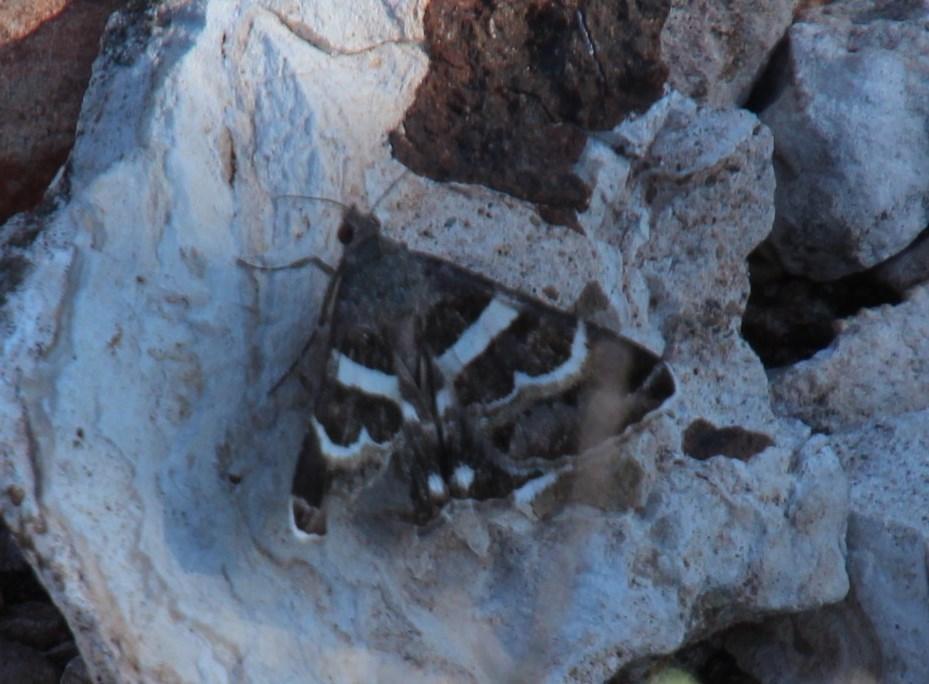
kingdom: Animalia
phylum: Arthropoda
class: Insecta
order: Lepidoptera
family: Erebidae
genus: Grammodes
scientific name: Grammodes stolida
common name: Geometrician
